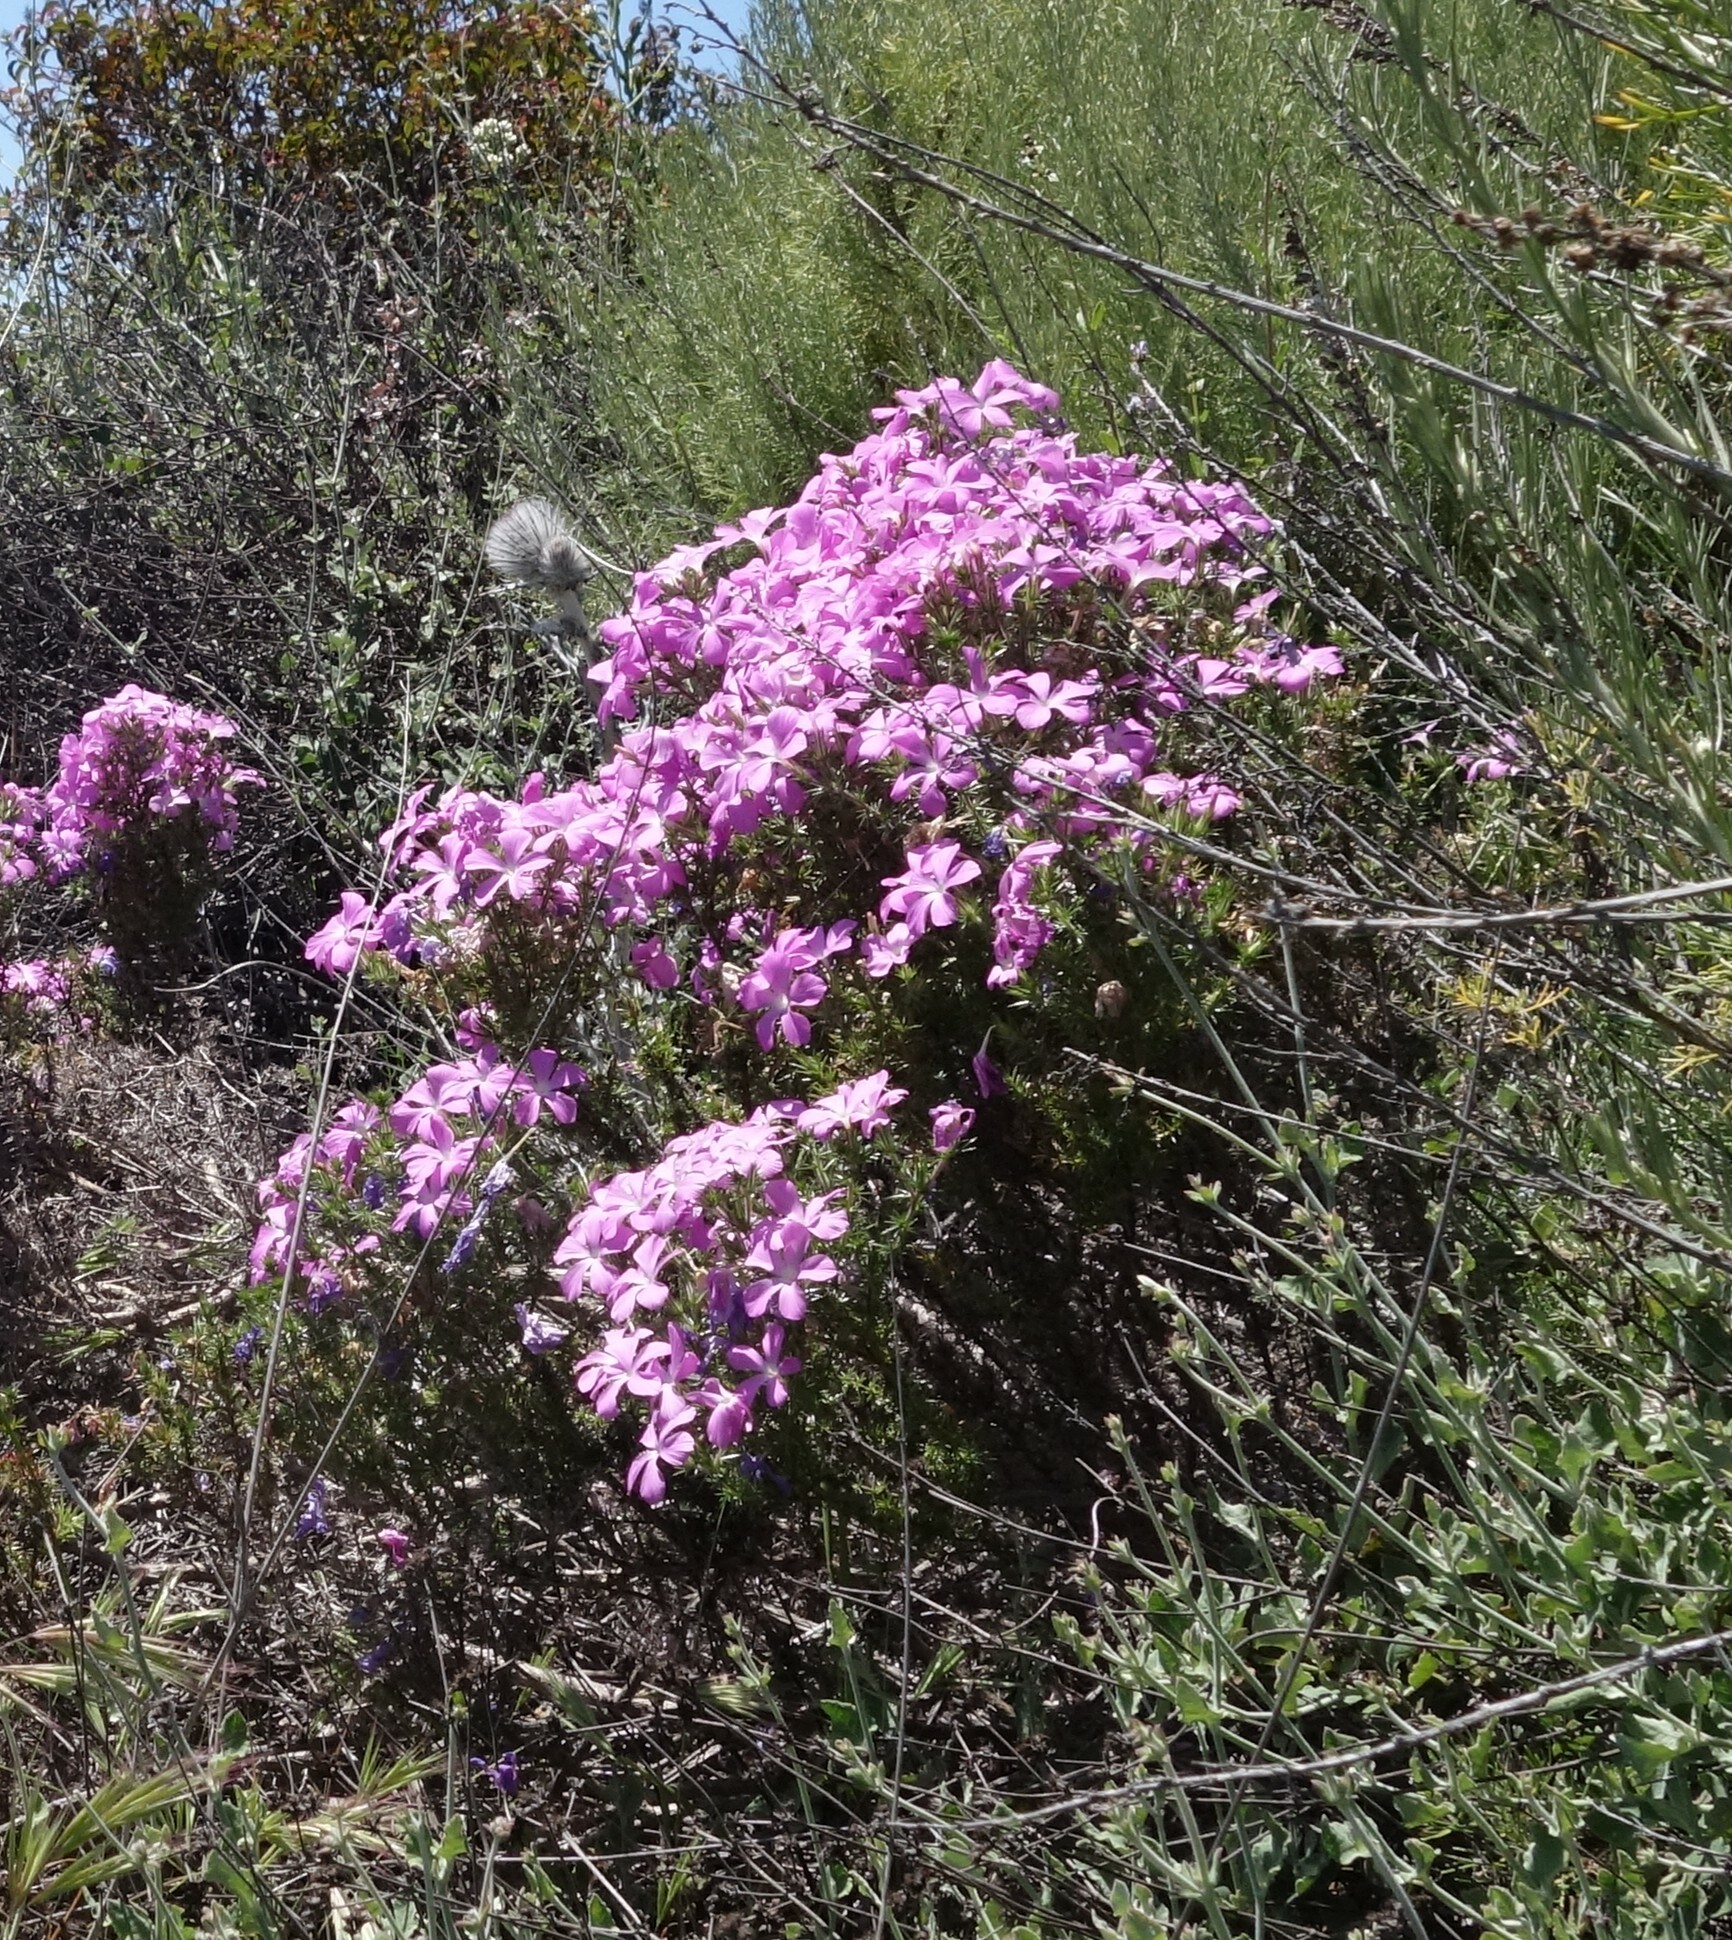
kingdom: Plantae
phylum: Tracheophyta
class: Magnoliopsida
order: Ericales
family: Polemoniaceae
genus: Linanthus
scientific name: Linanthus californicus
